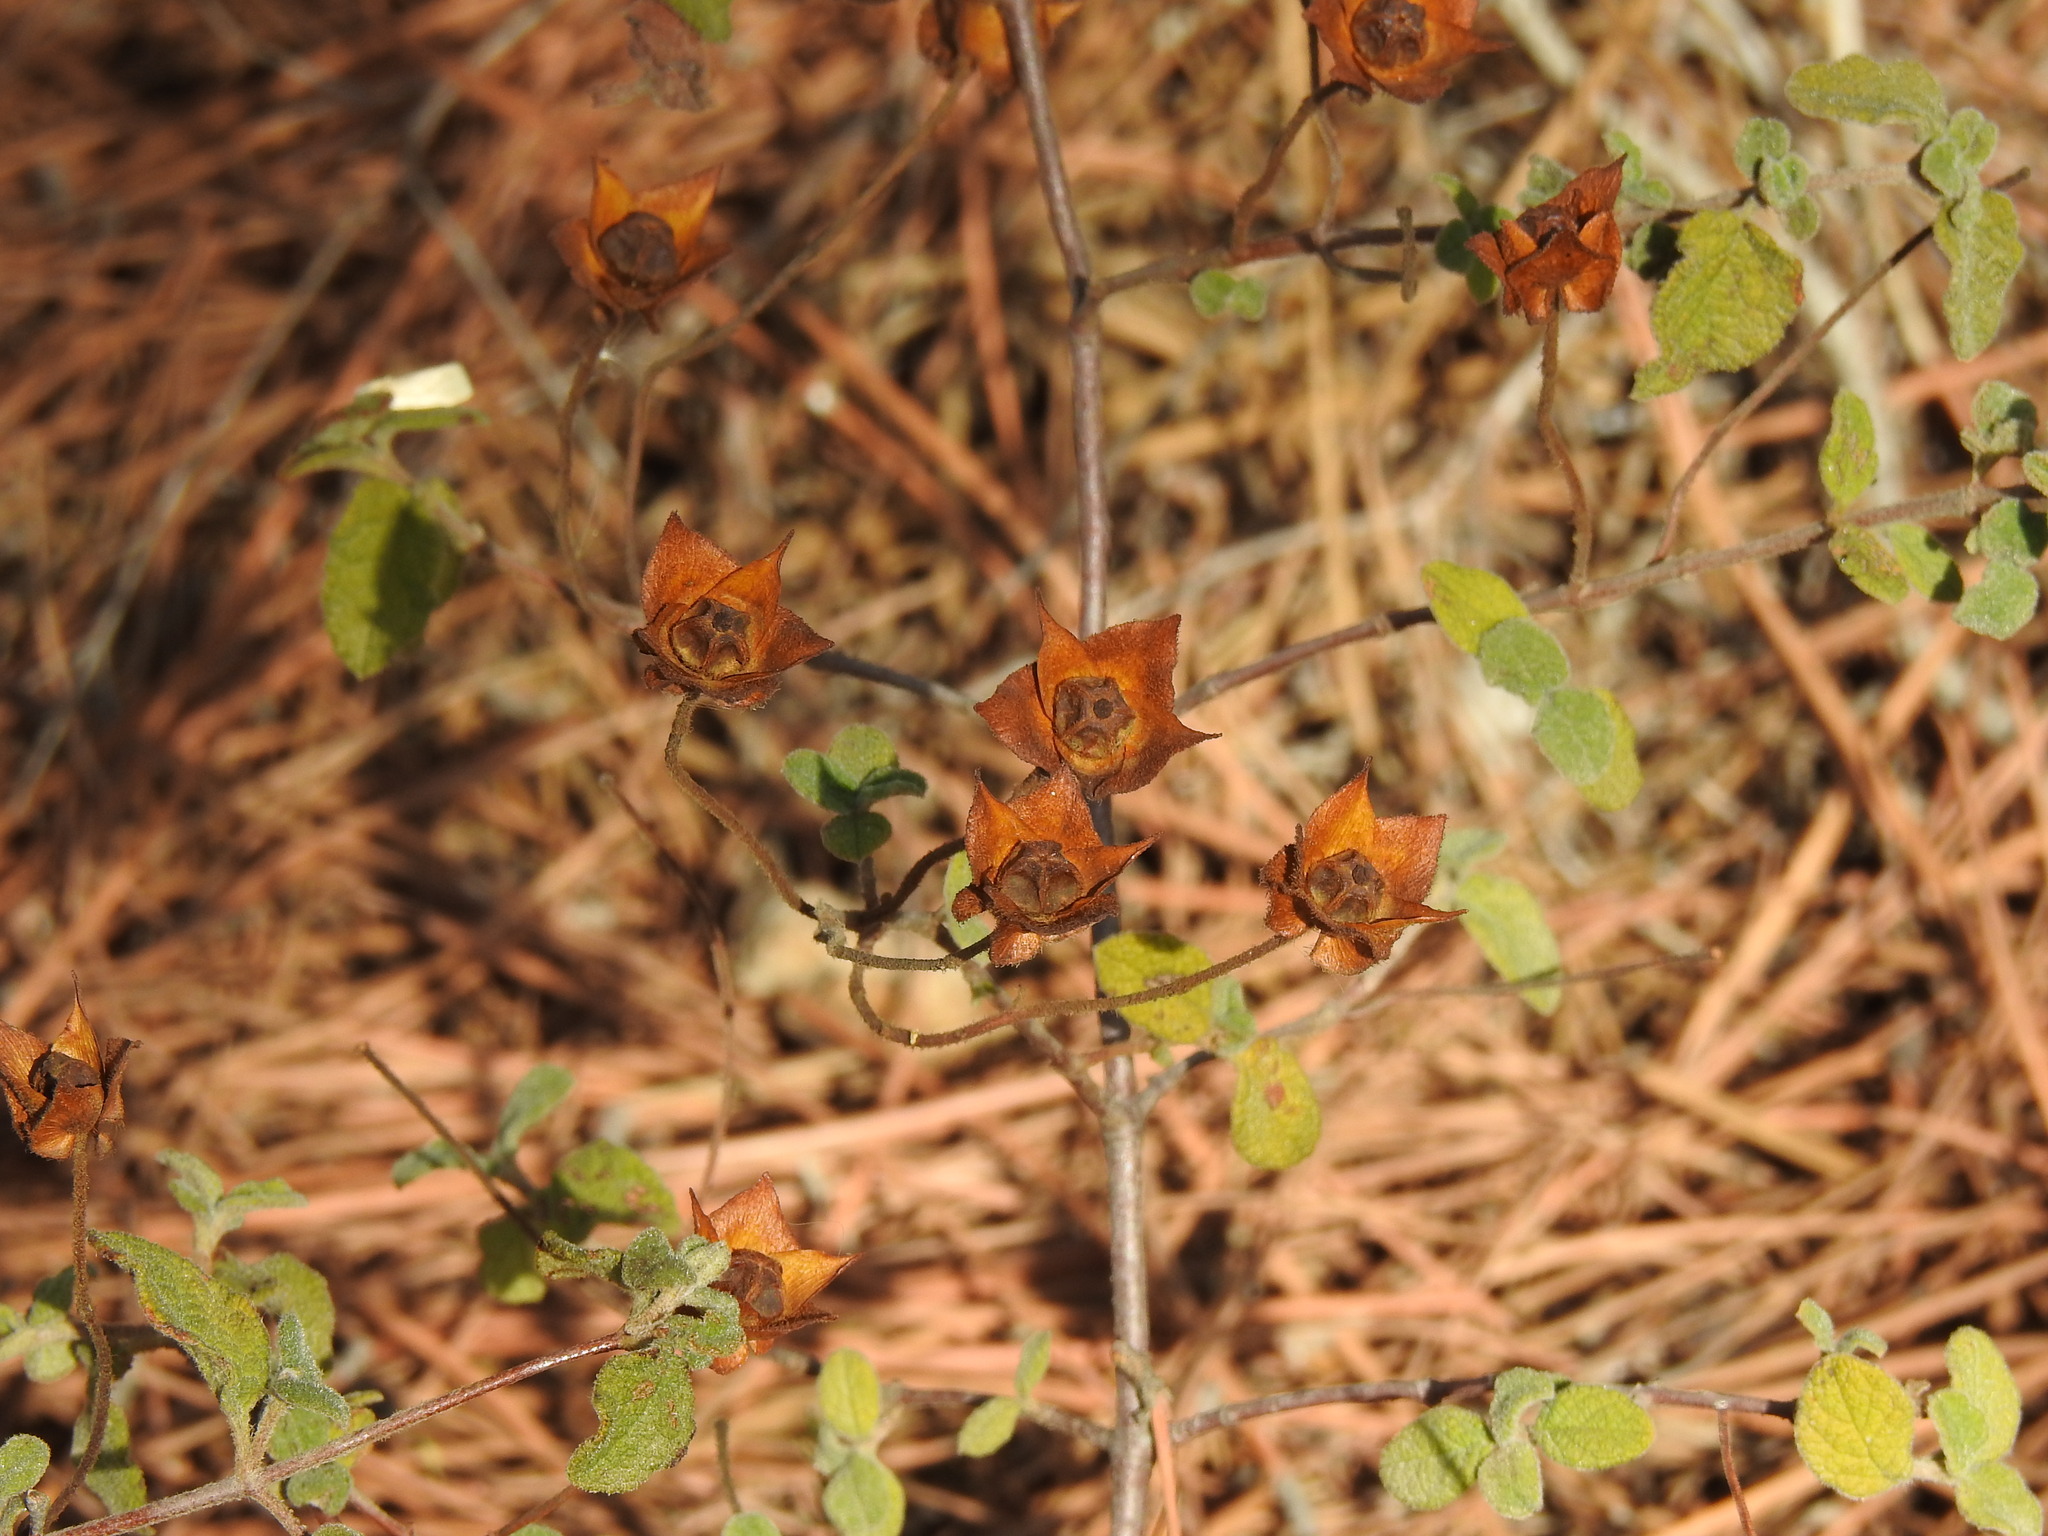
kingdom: Plantae
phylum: Tracheophyta
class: Magnoliopsida
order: Malvales
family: Cistaceae
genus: Cistus
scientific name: Cistus salviifolius
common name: Salvia cistus
